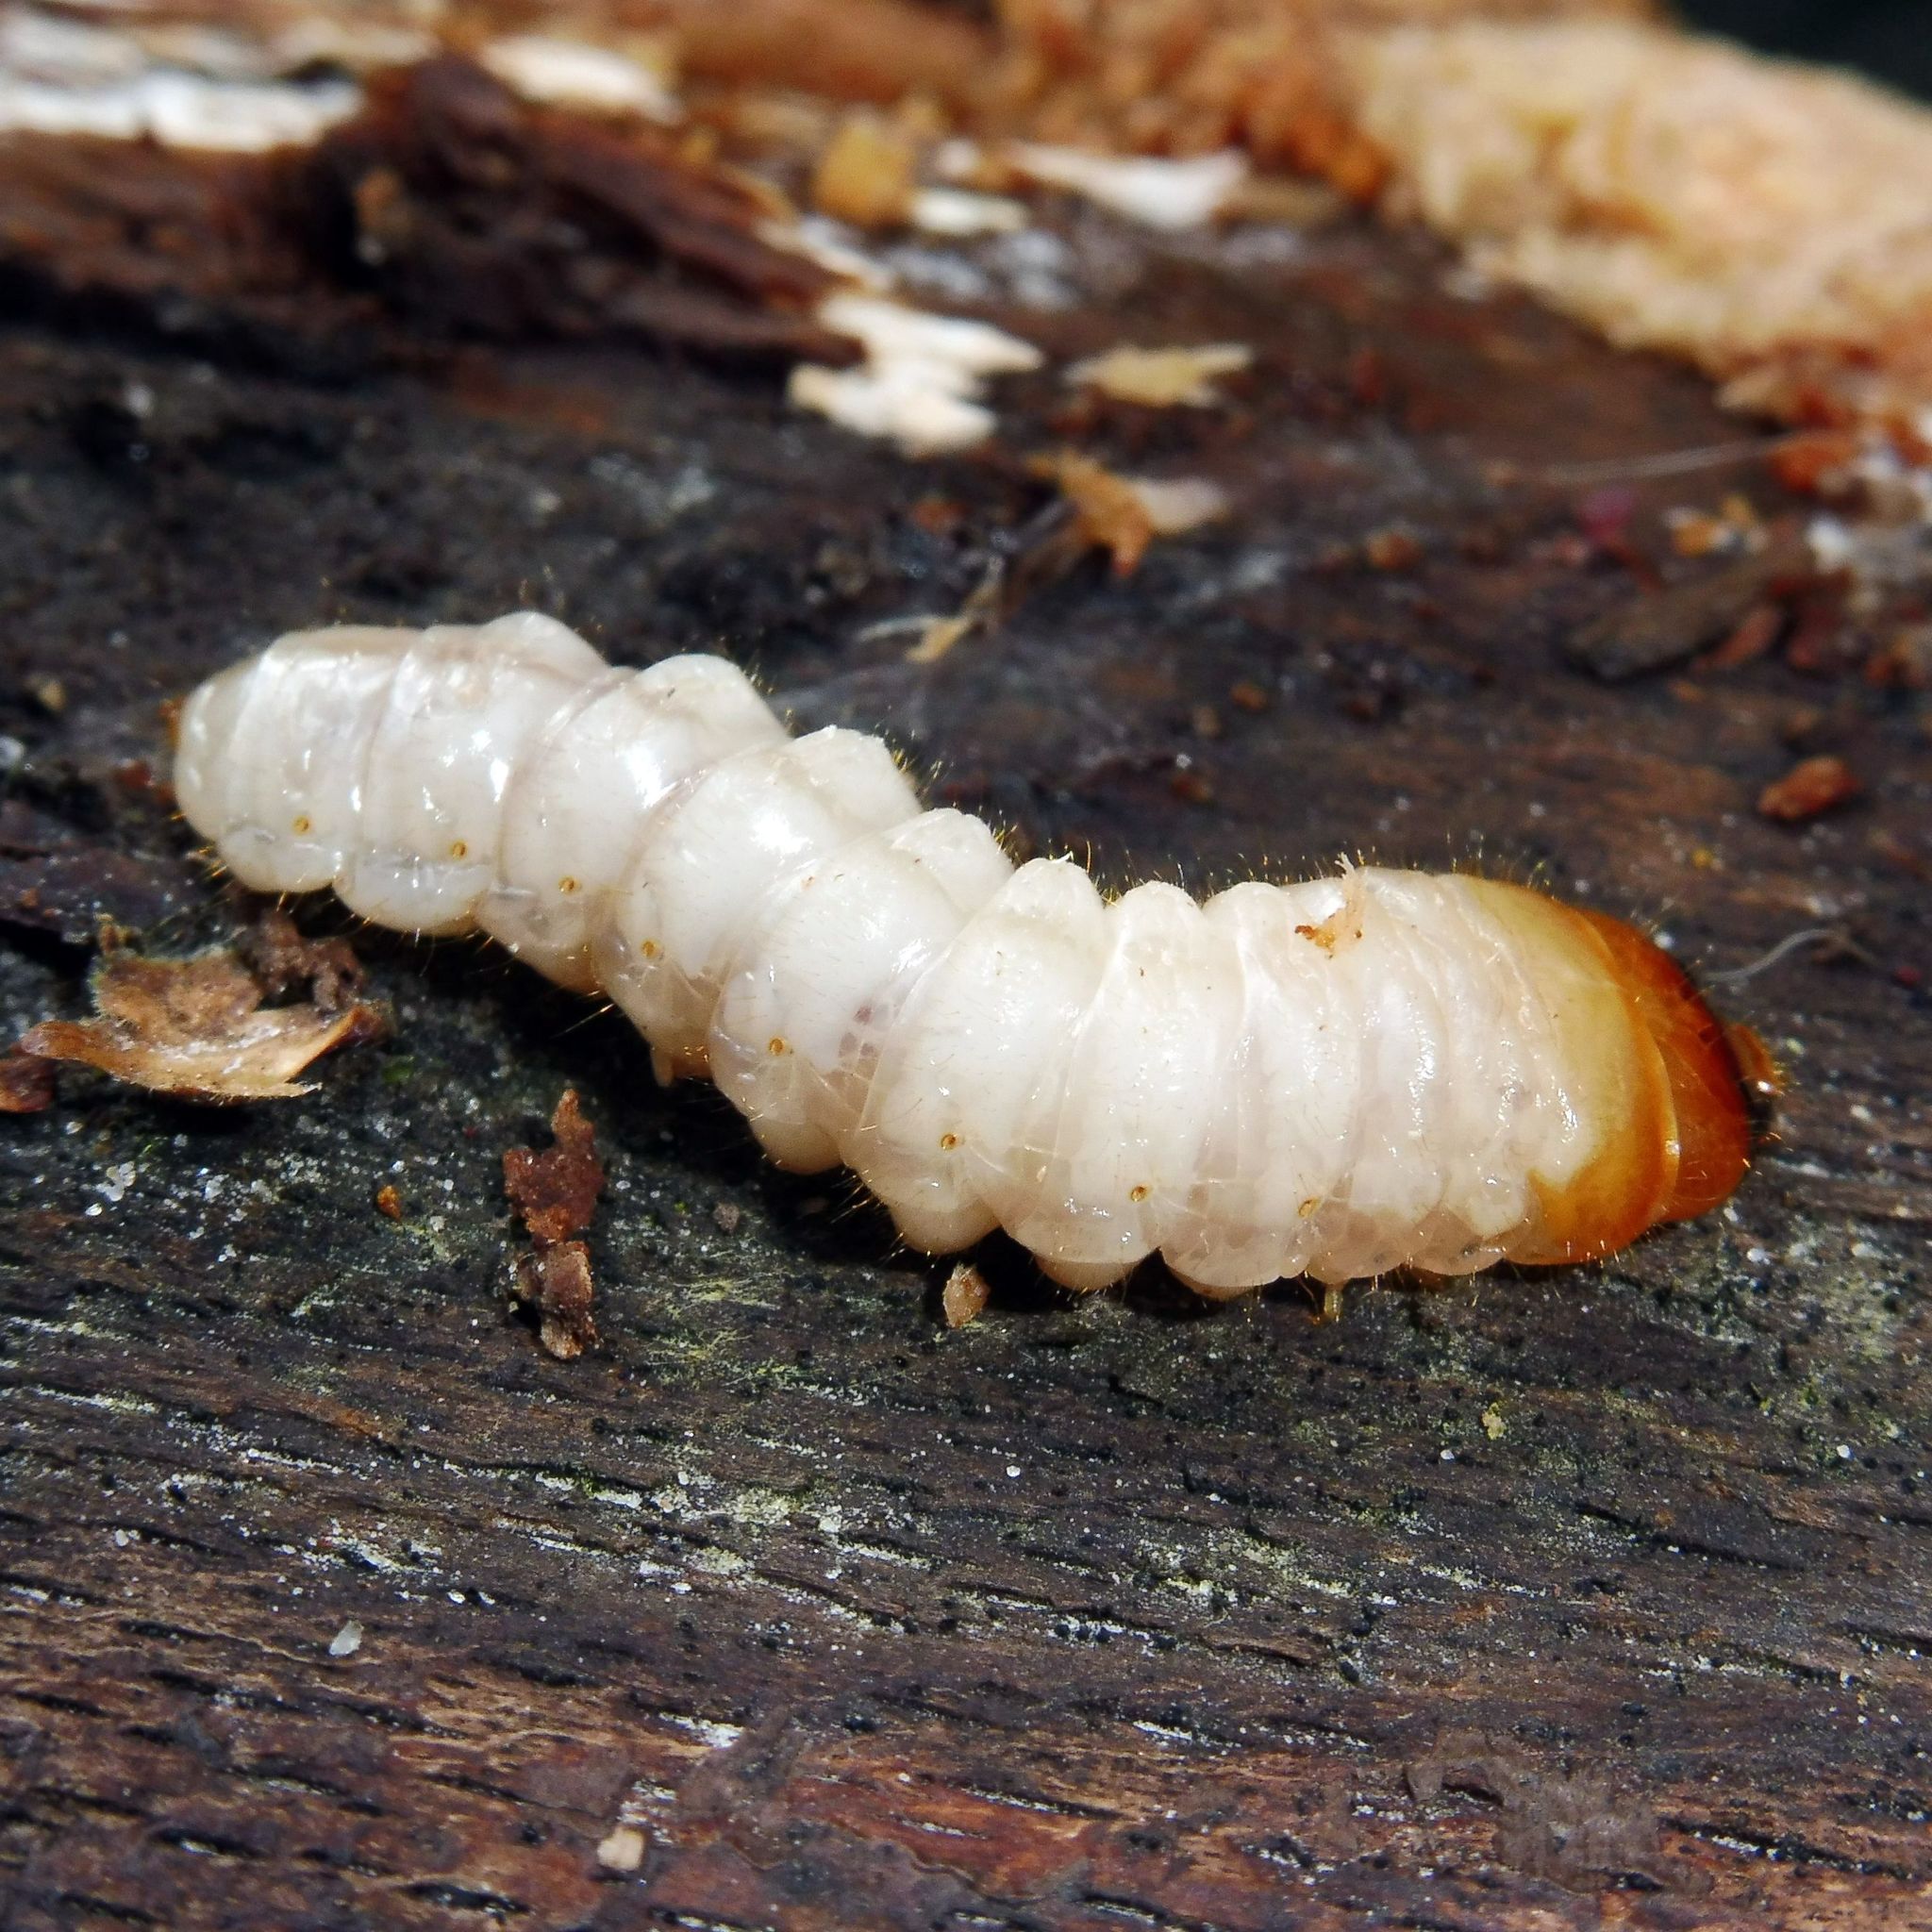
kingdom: Animalia
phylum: Arthropoda
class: Insecta
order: Coleoptera
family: Cerambycidae
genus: Rhagium
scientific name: Rhagium mordax
